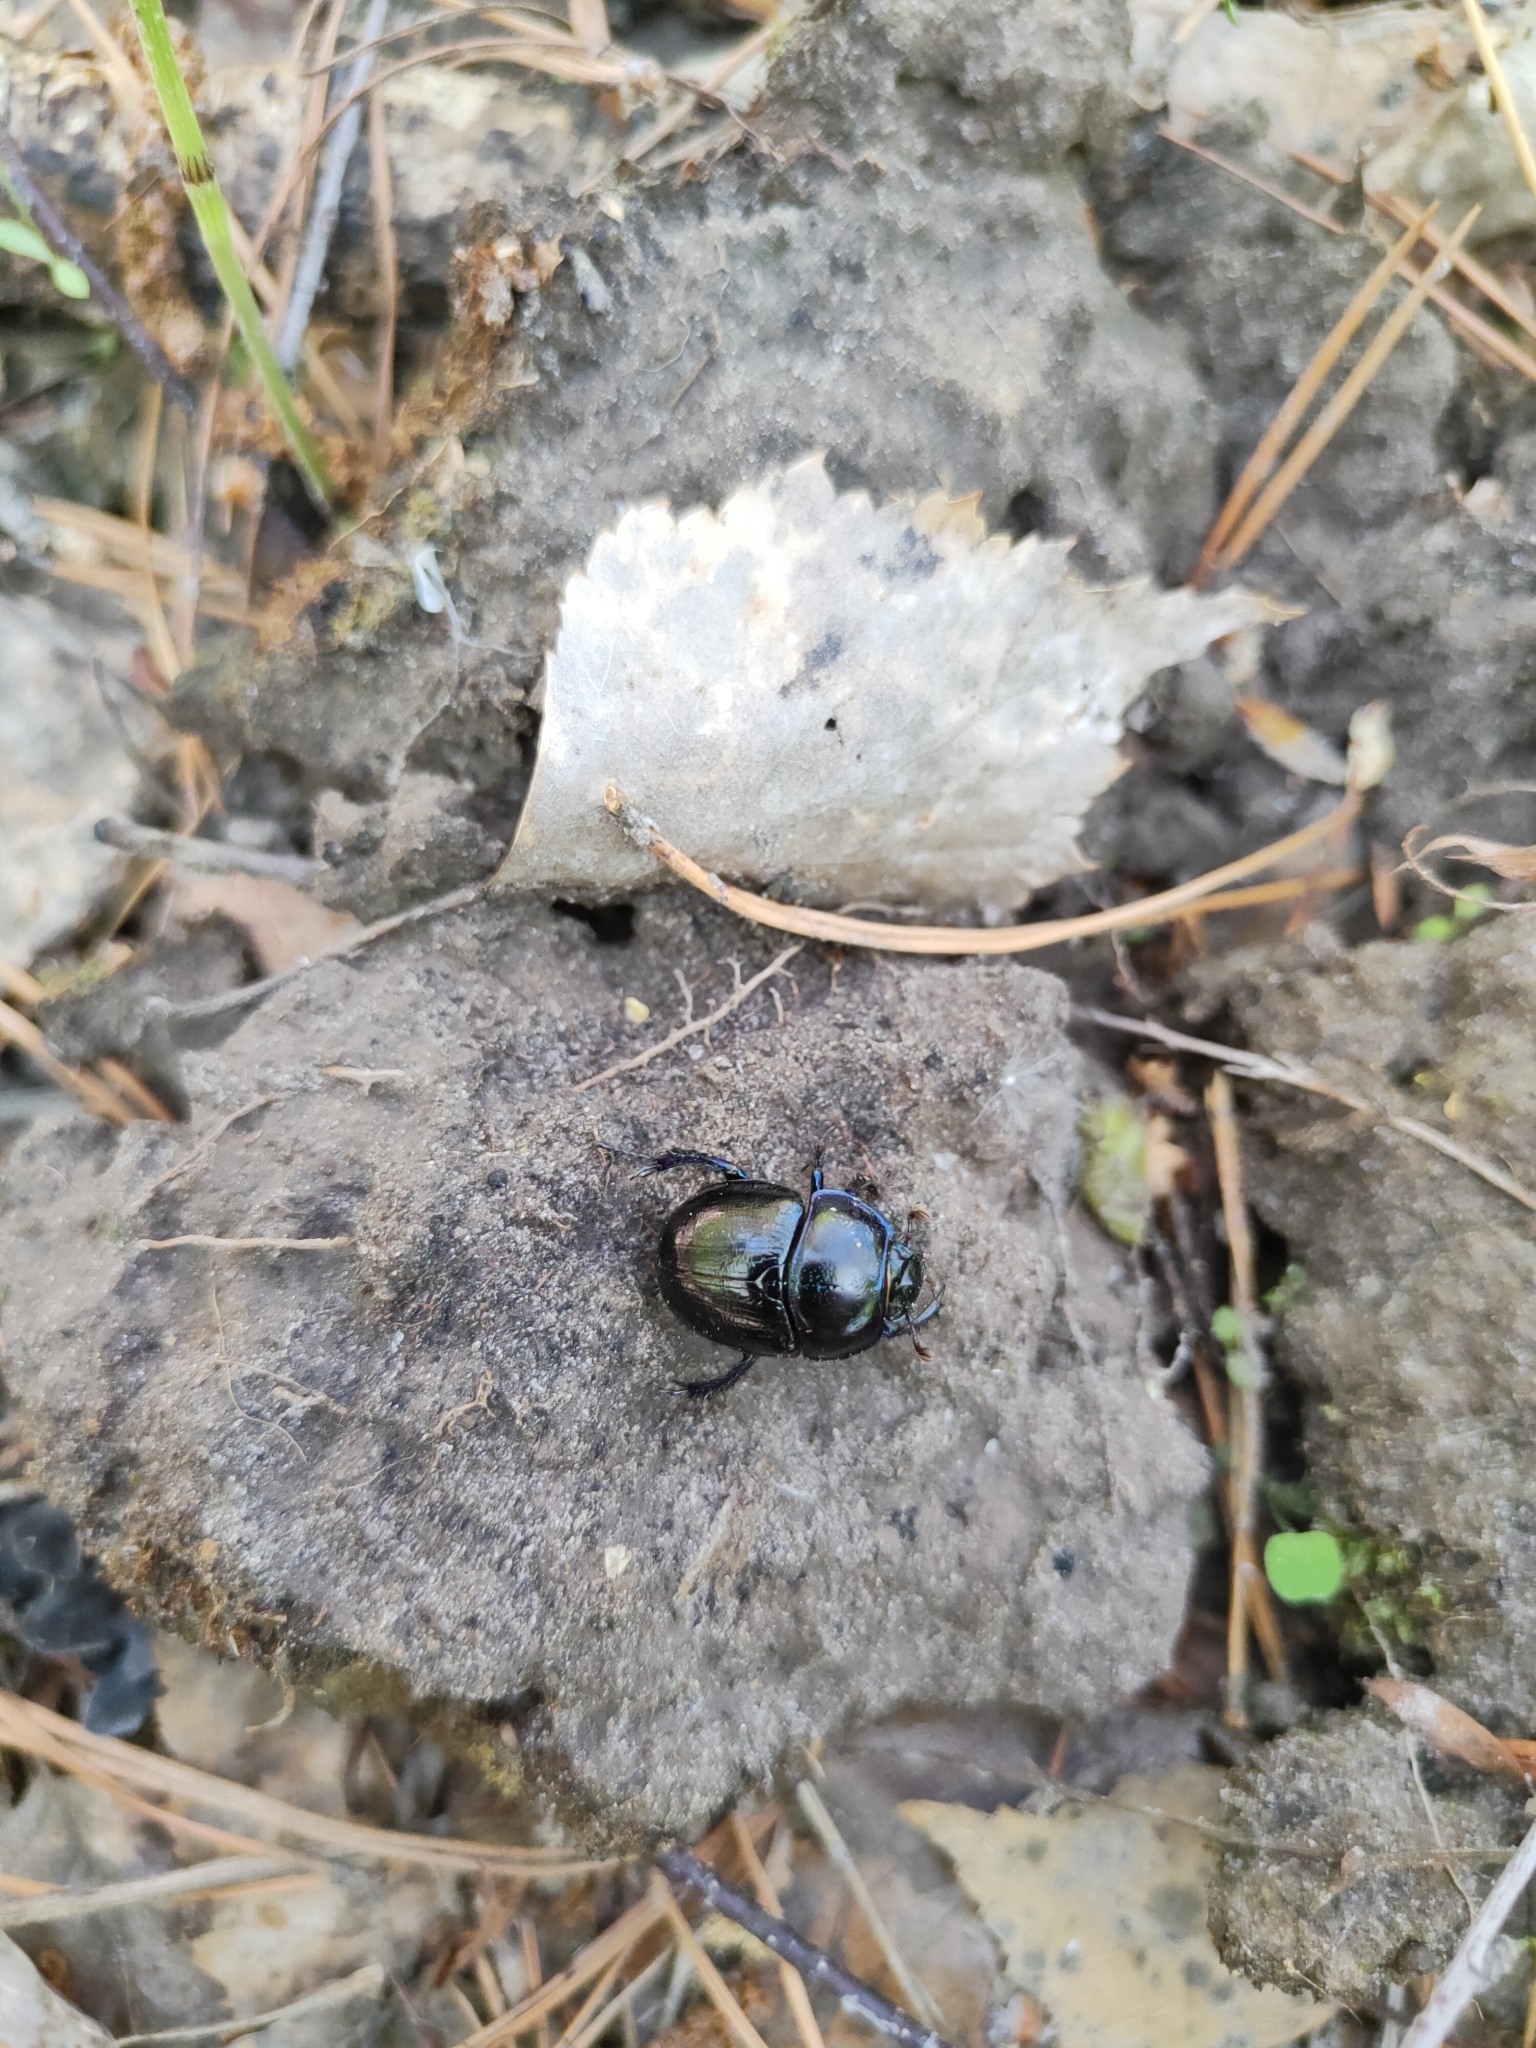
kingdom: Animalia
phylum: Arthropoda
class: Insecta
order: Coleoptera
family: Geotrupidae
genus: Anoplotrupes
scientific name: Anoplotrupes stercorosus
